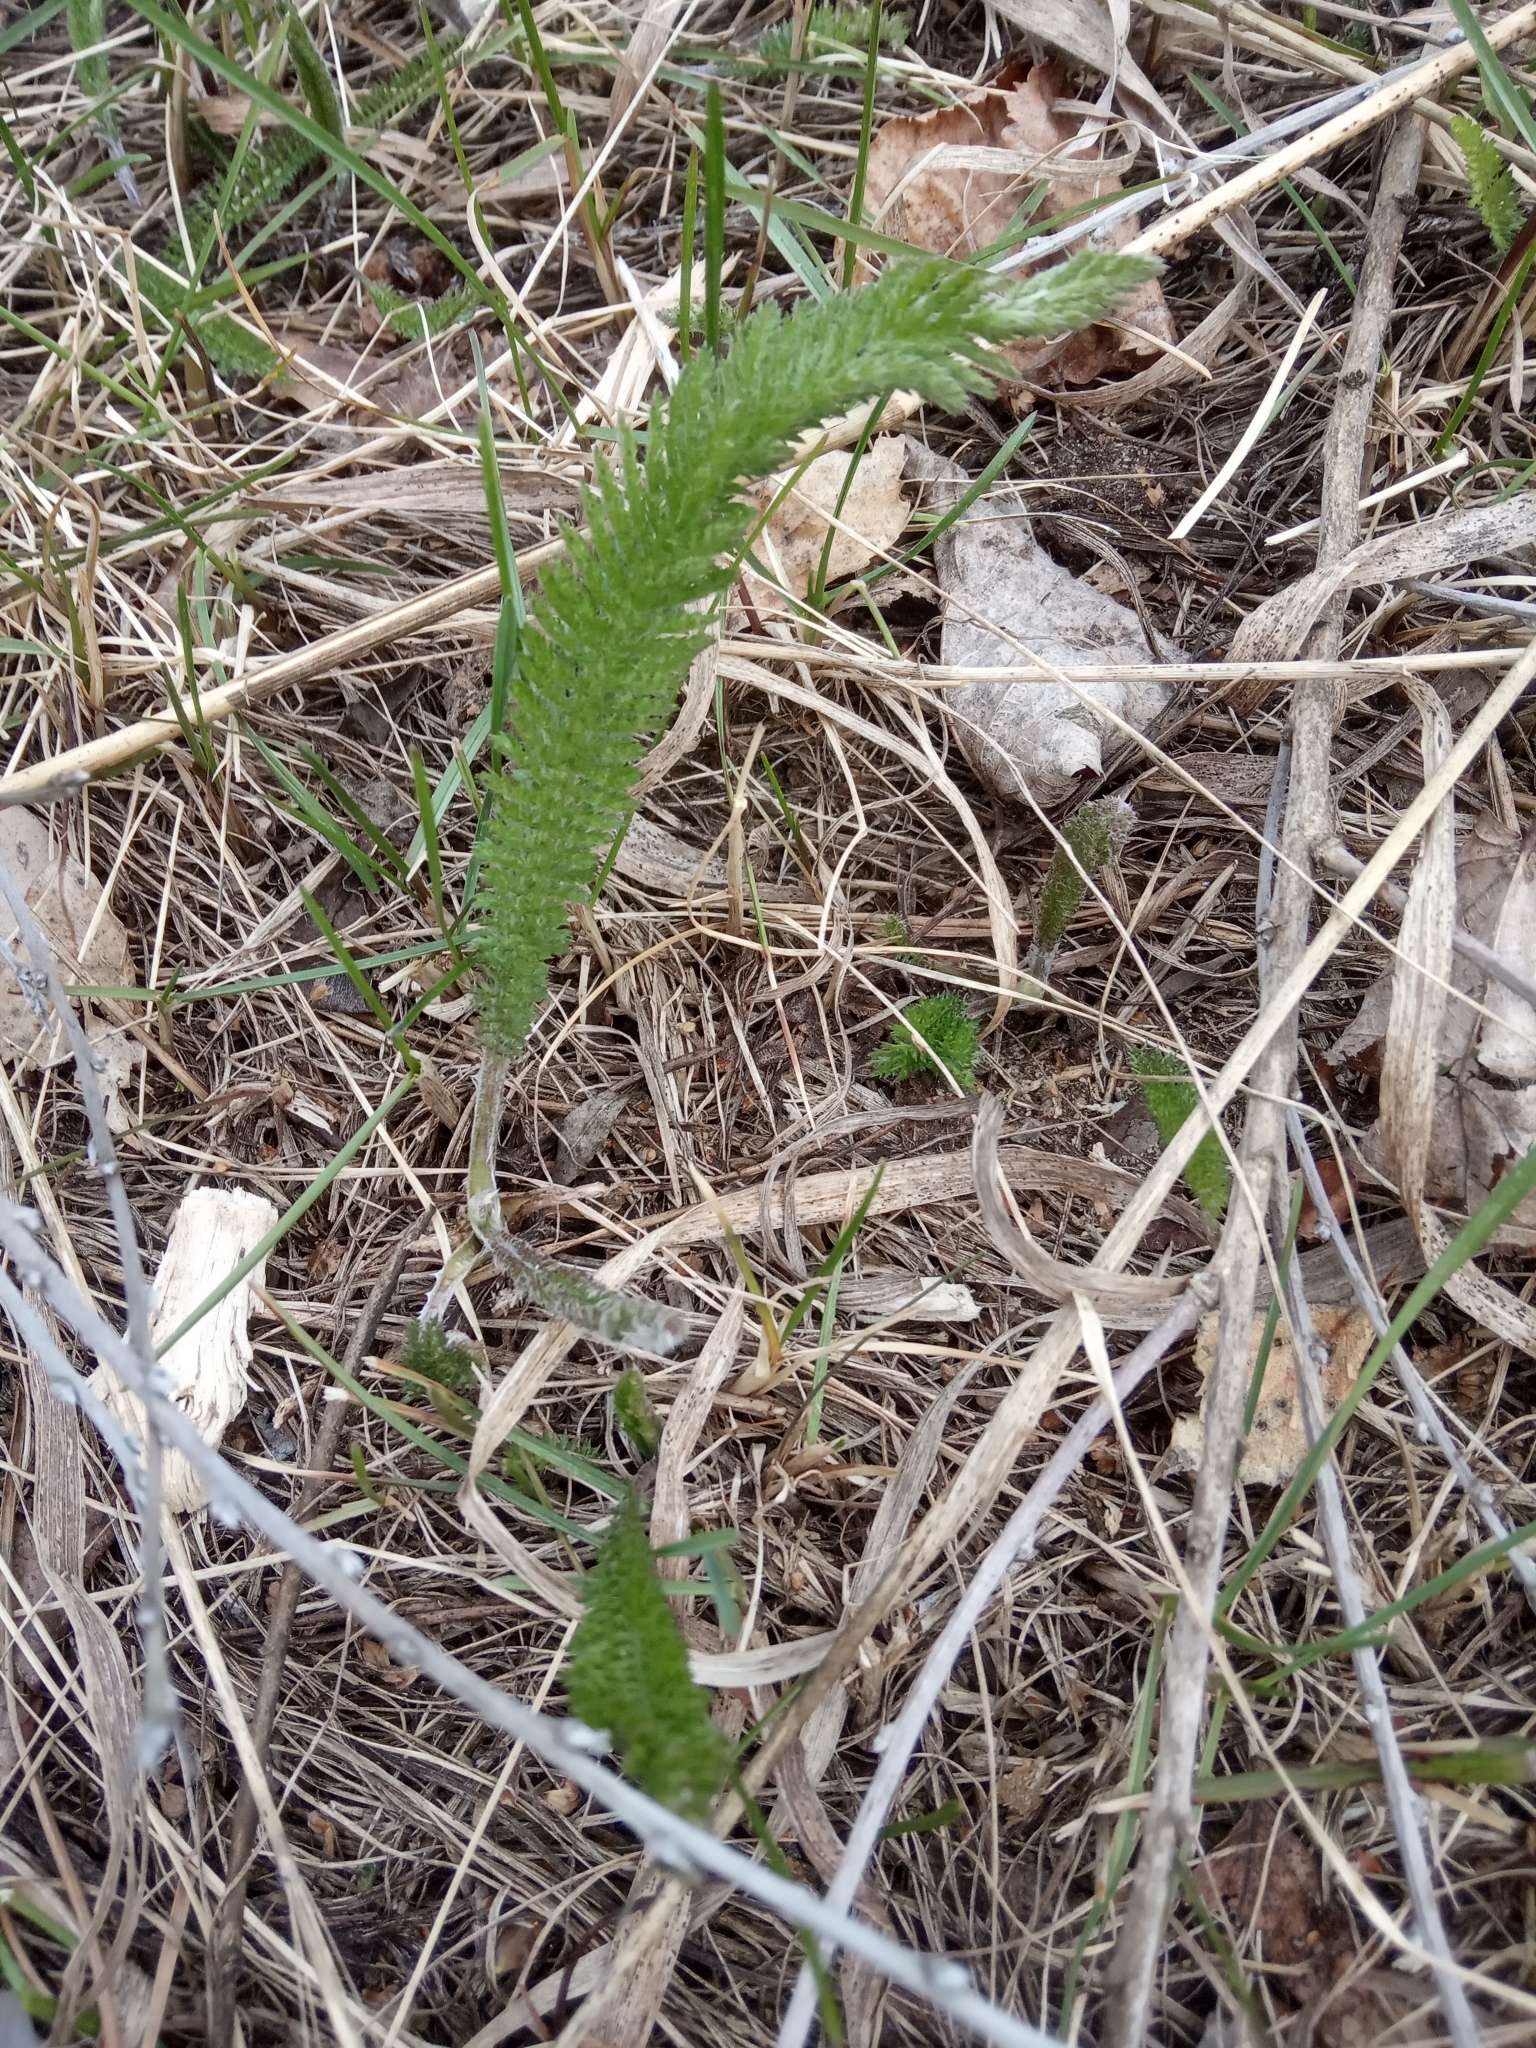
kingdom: Plantae
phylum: Tracheophyta
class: Magnoliopsida
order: Asterales
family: Asteraceae
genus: Achillea
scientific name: Achillea setacea
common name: Bristly yarrow
